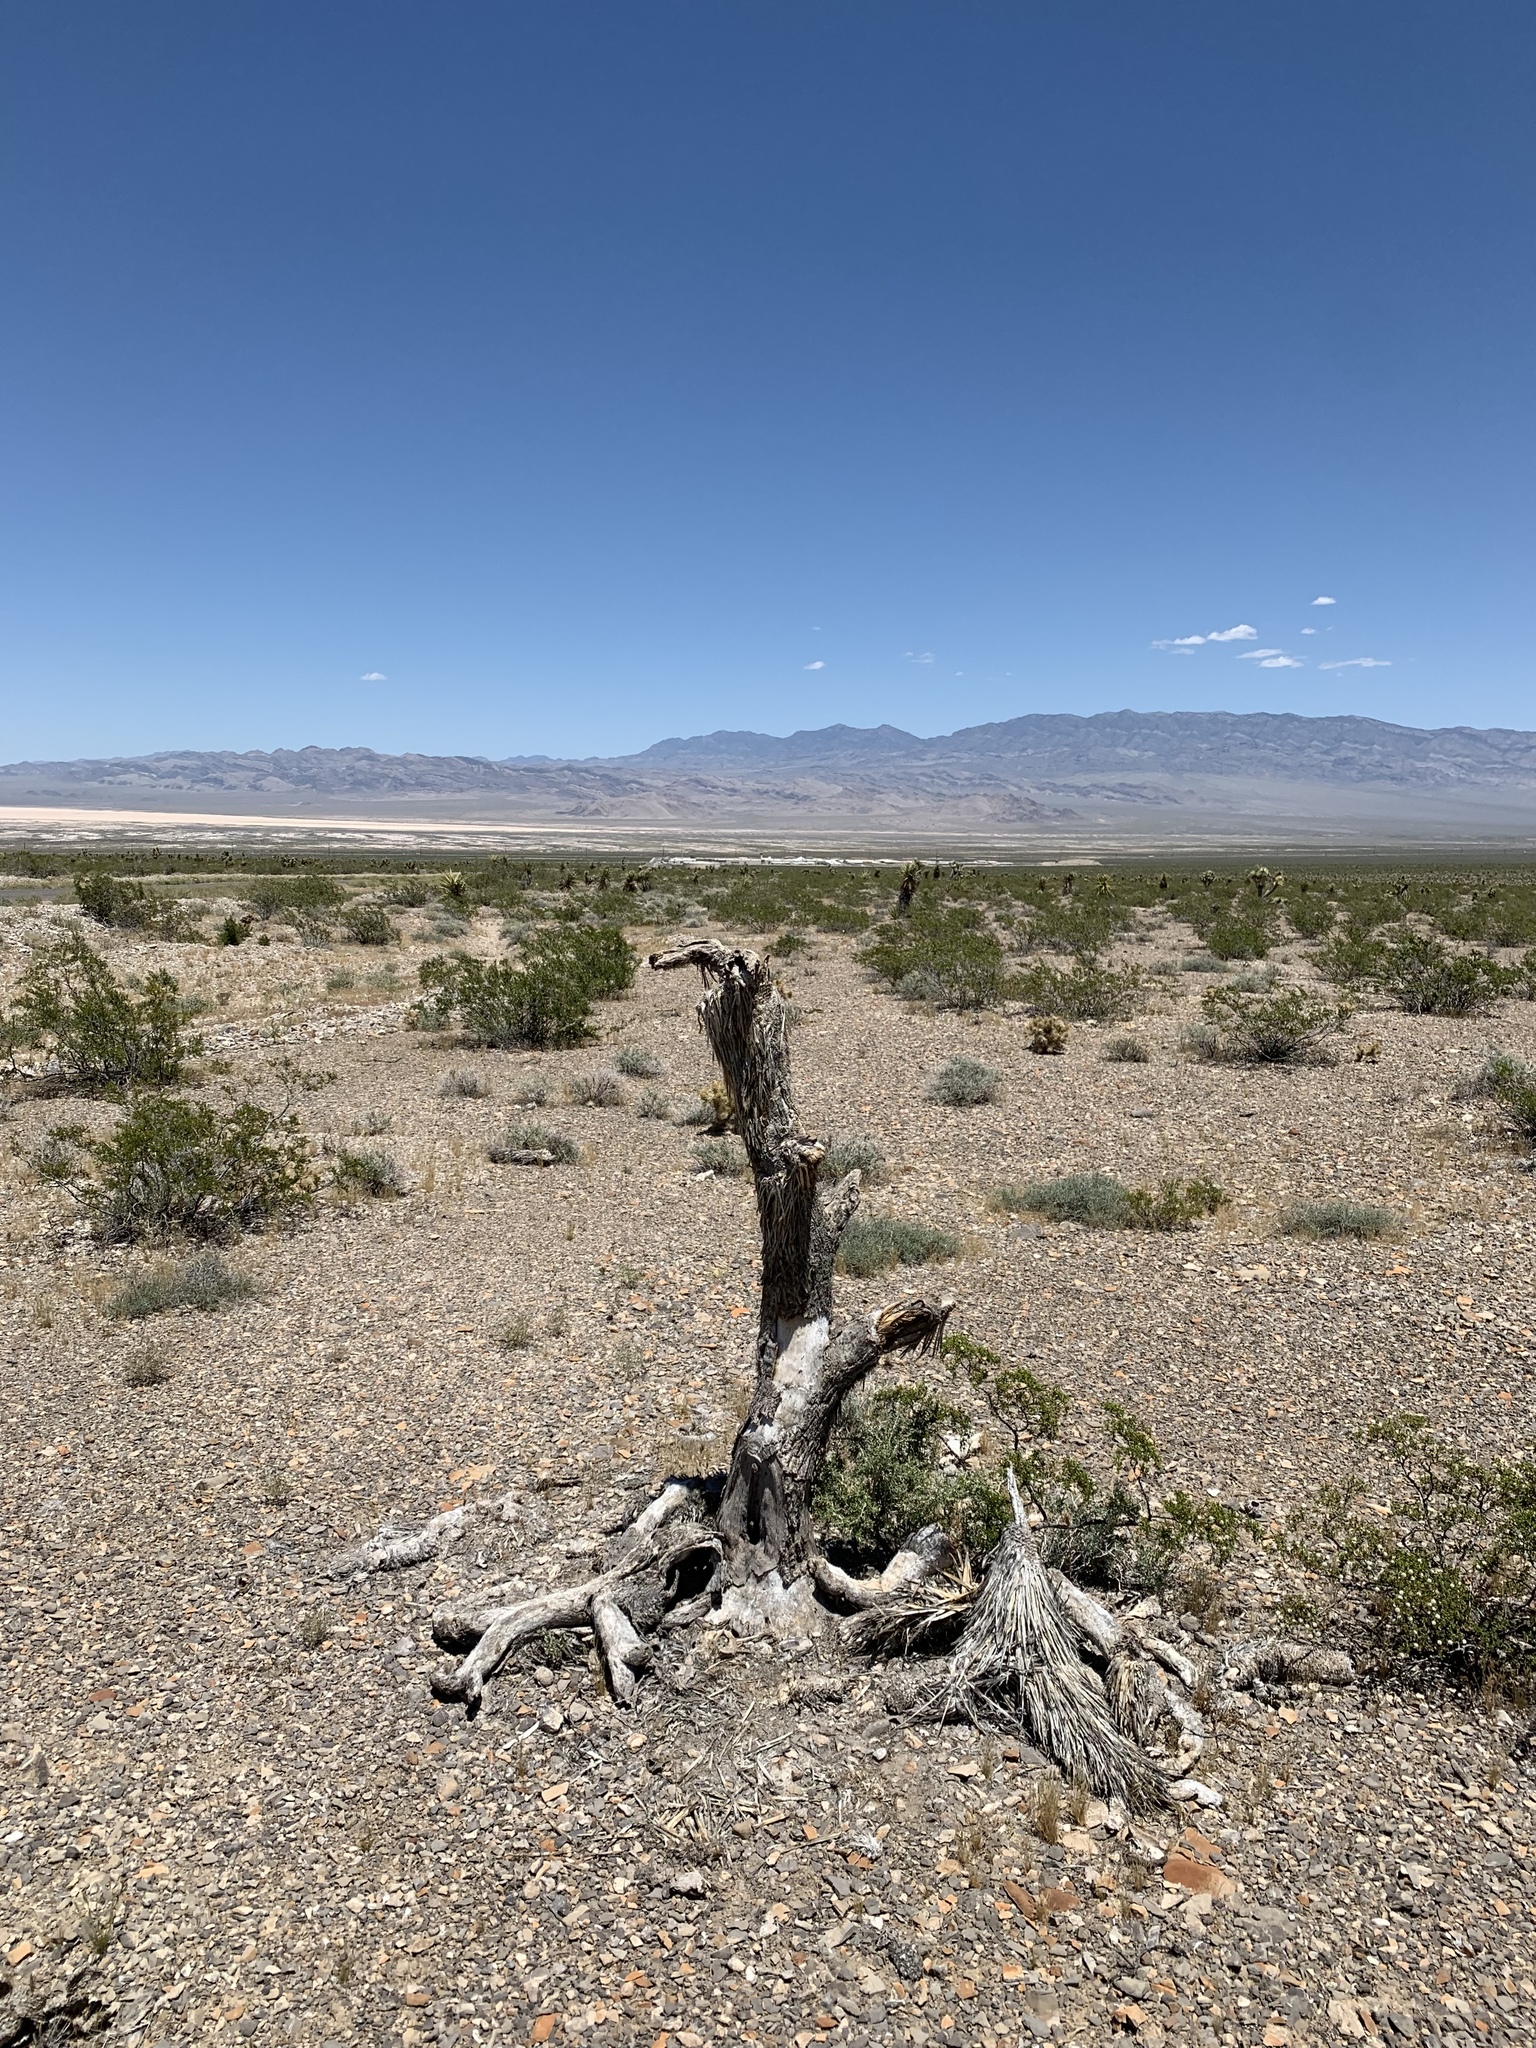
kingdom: Plantae
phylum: Tracheophyta
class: Liliopsida
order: Asparagales
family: Asparagaceae
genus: Yucca
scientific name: Yucca brevifolia
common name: Joshua tree
